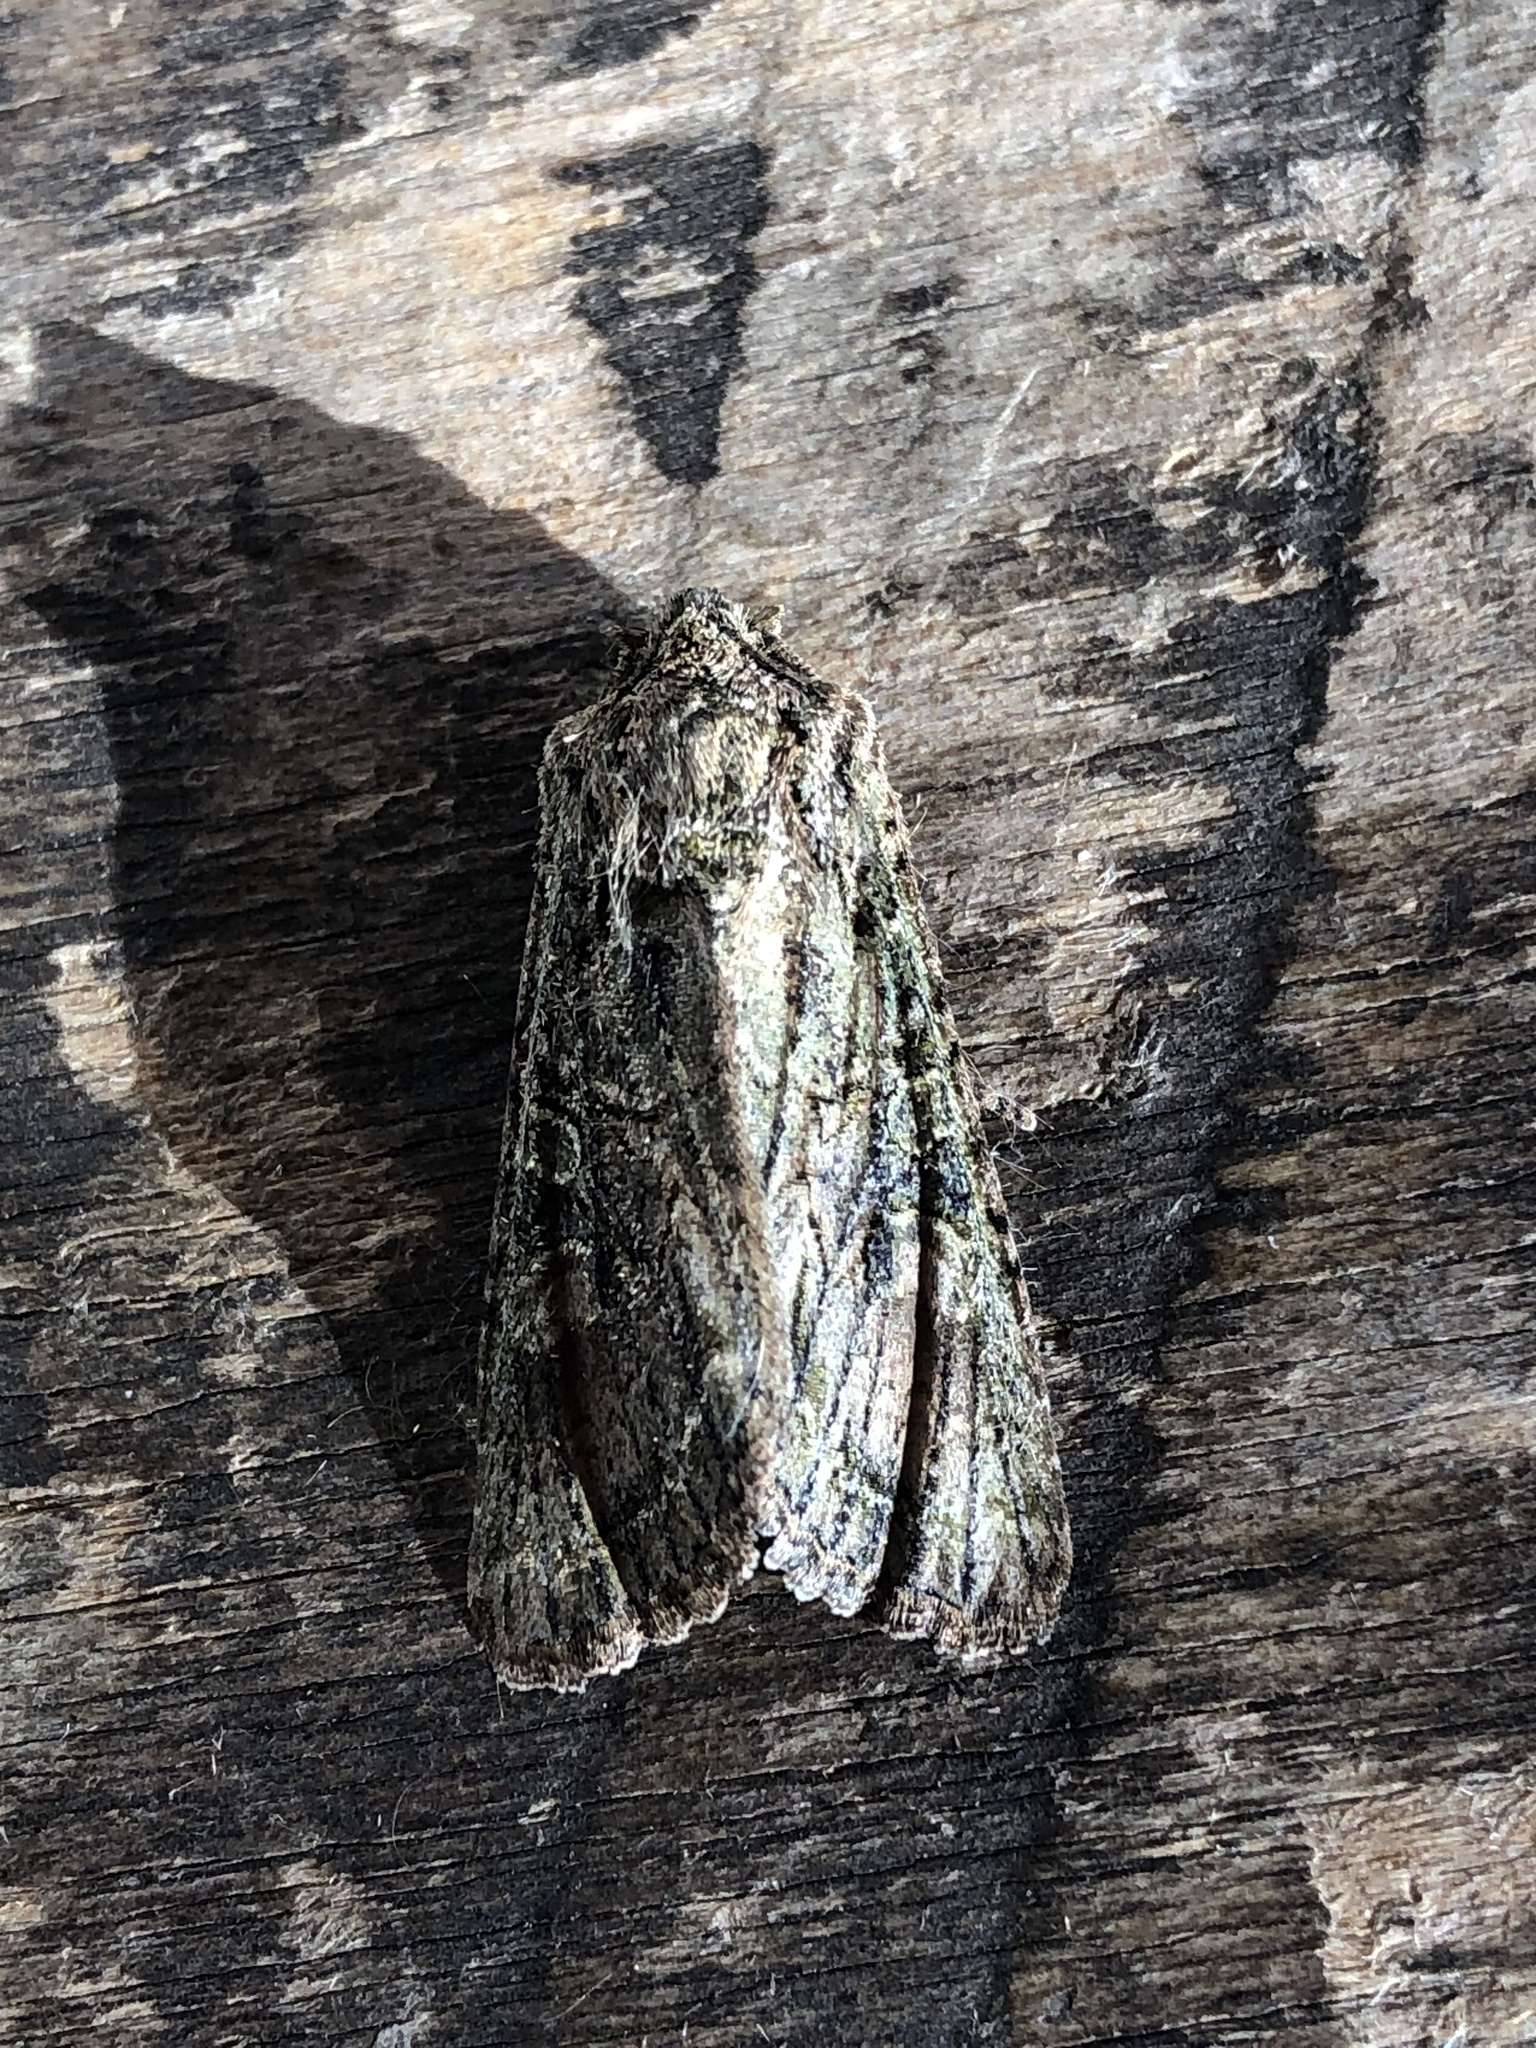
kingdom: Animalia
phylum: Arthropoda
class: Insecta
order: Lepidoptera
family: Noctuidae
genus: Ichneutica
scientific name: Ichneutica mutans
